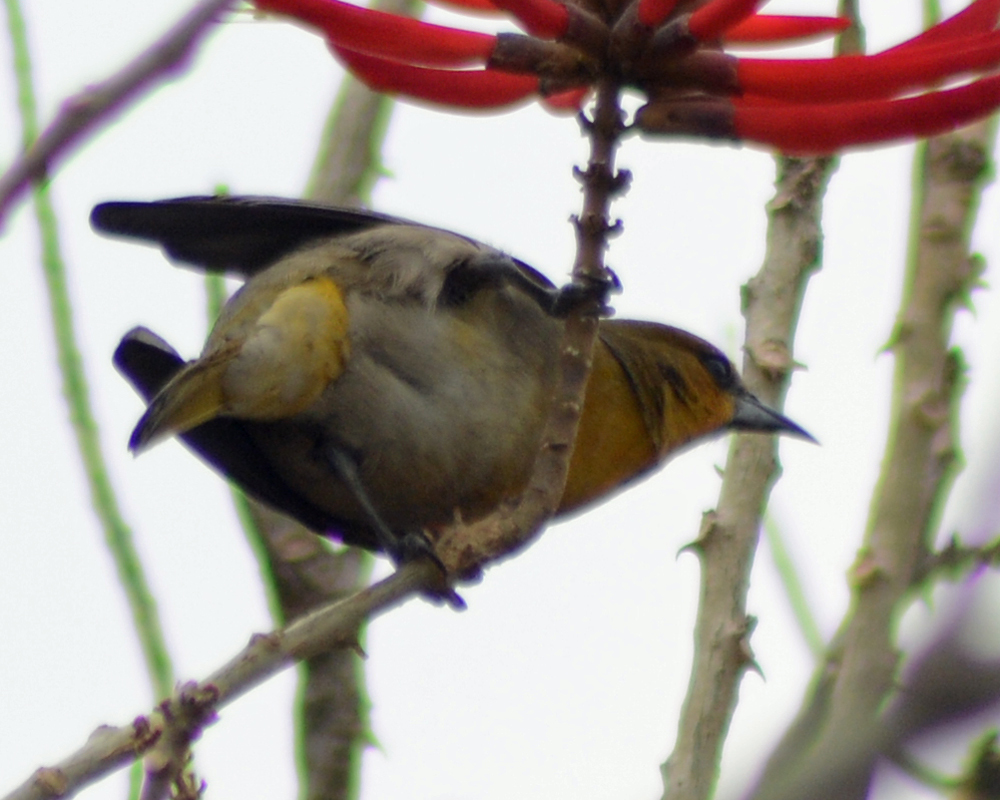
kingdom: Animalia
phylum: Chordata
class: Aves
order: Passeriformes
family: Icteridae
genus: Icterus
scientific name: Icterus abeillei
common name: Black-backed oriole
